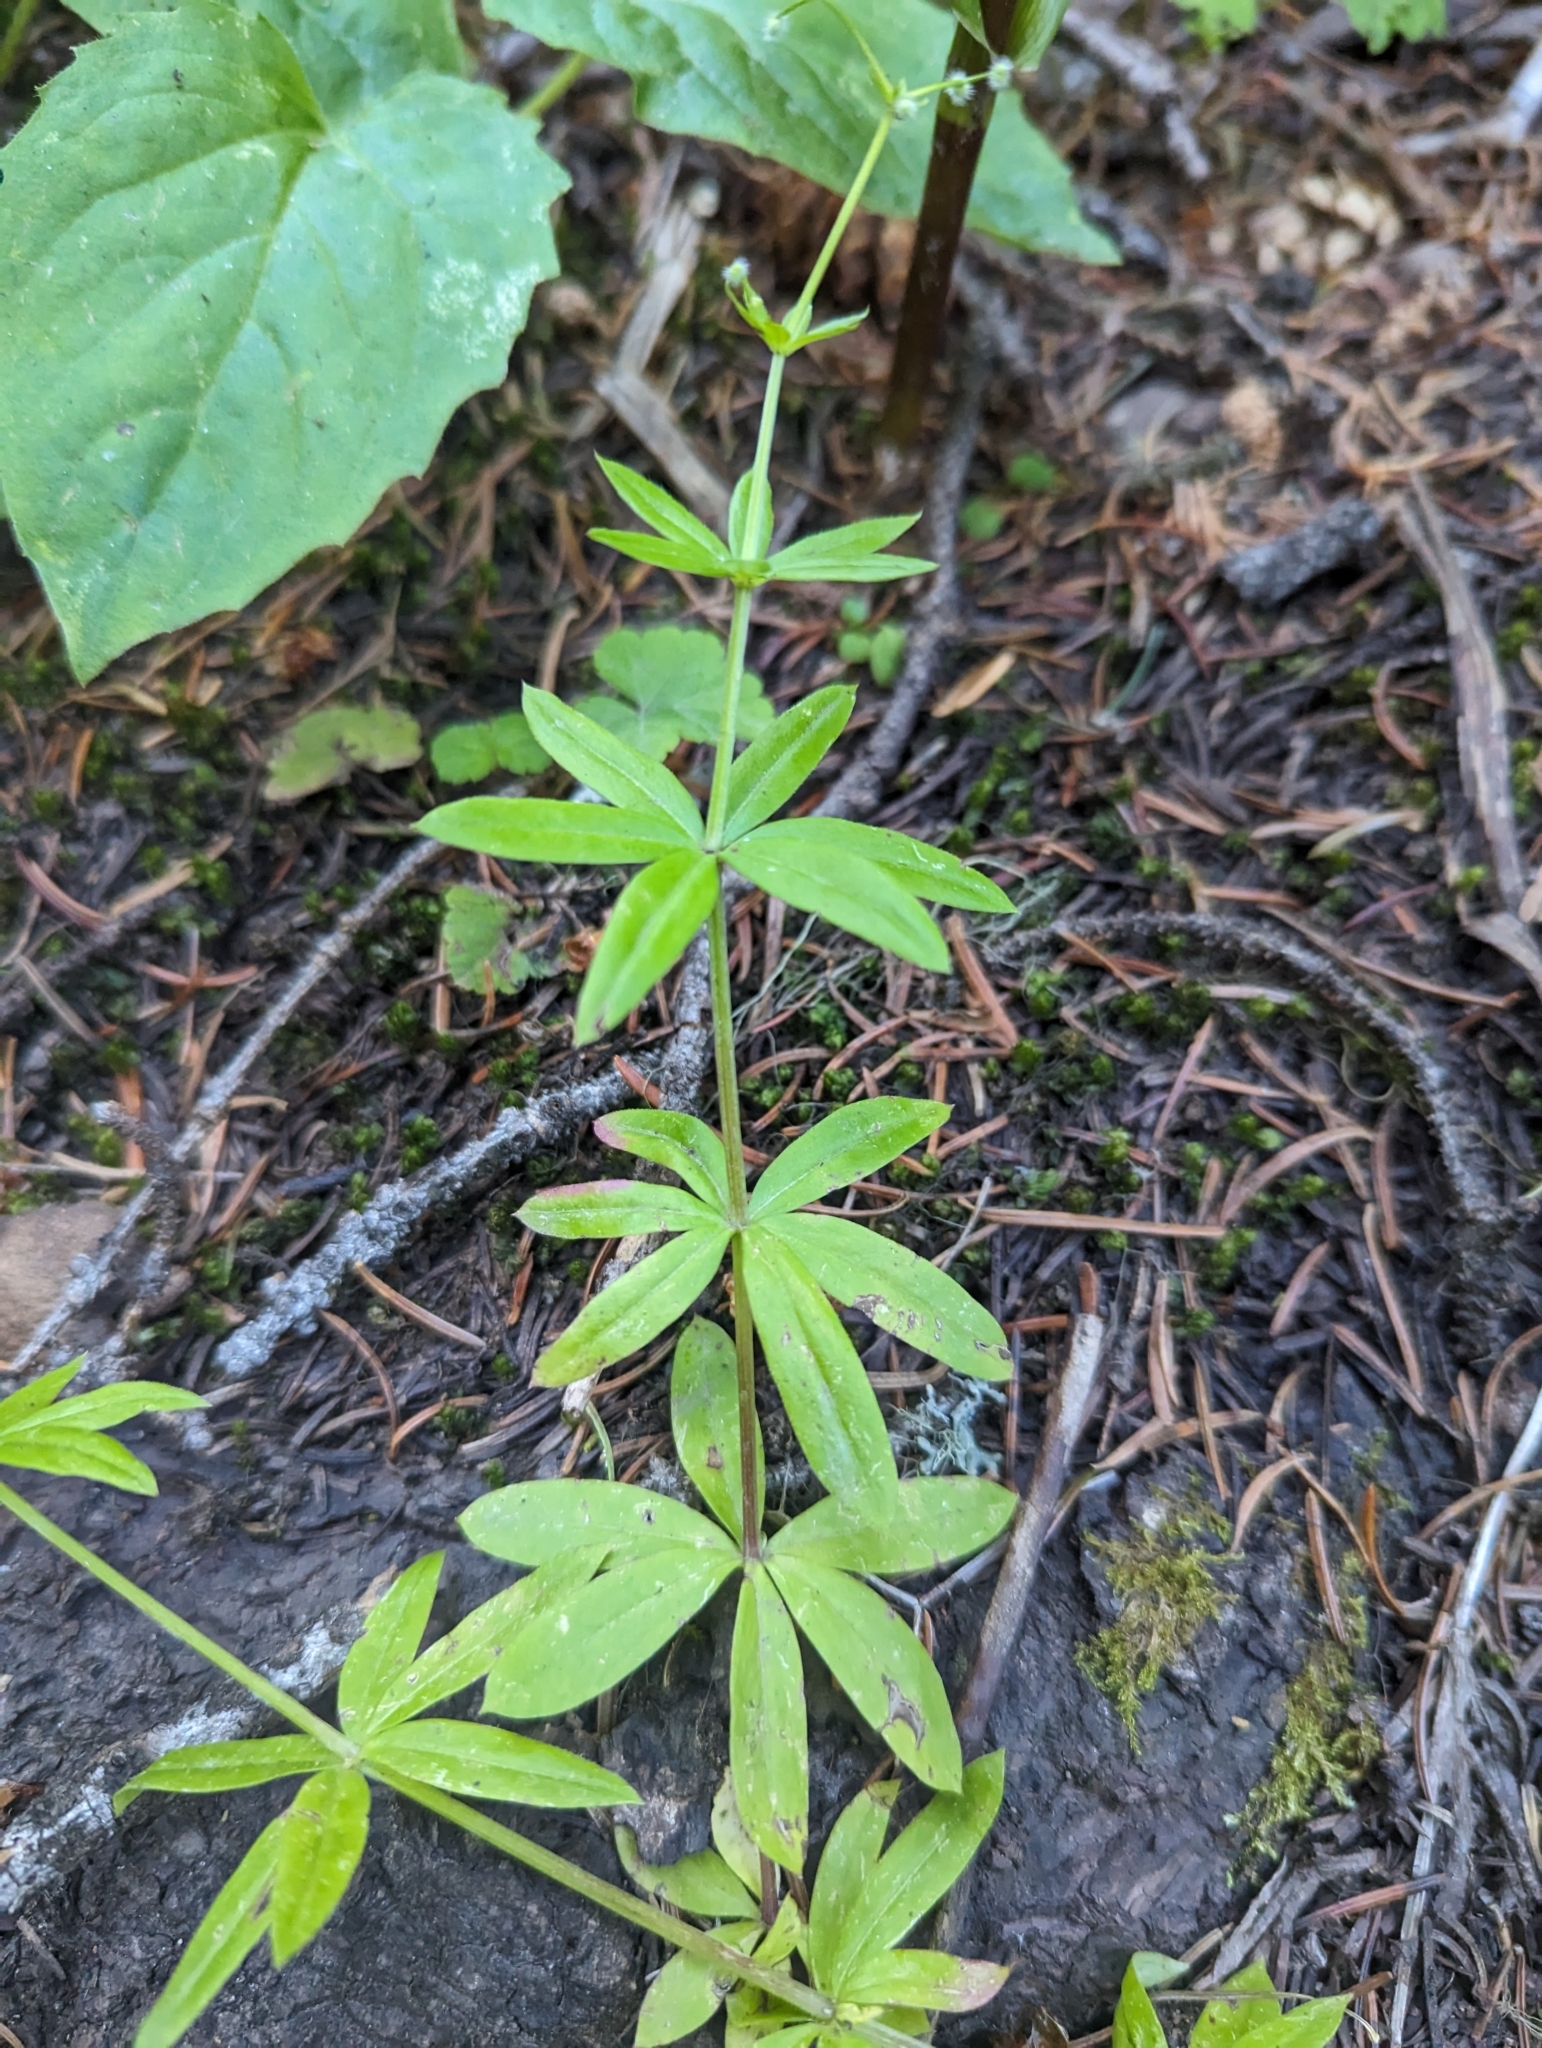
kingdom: Plantae
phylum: Tracheophyta
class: Magnoliopsida
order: Gentianales
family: Rubiaceae
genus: Galium
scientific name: Galium triflorum
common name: Fragrant bedstraw
